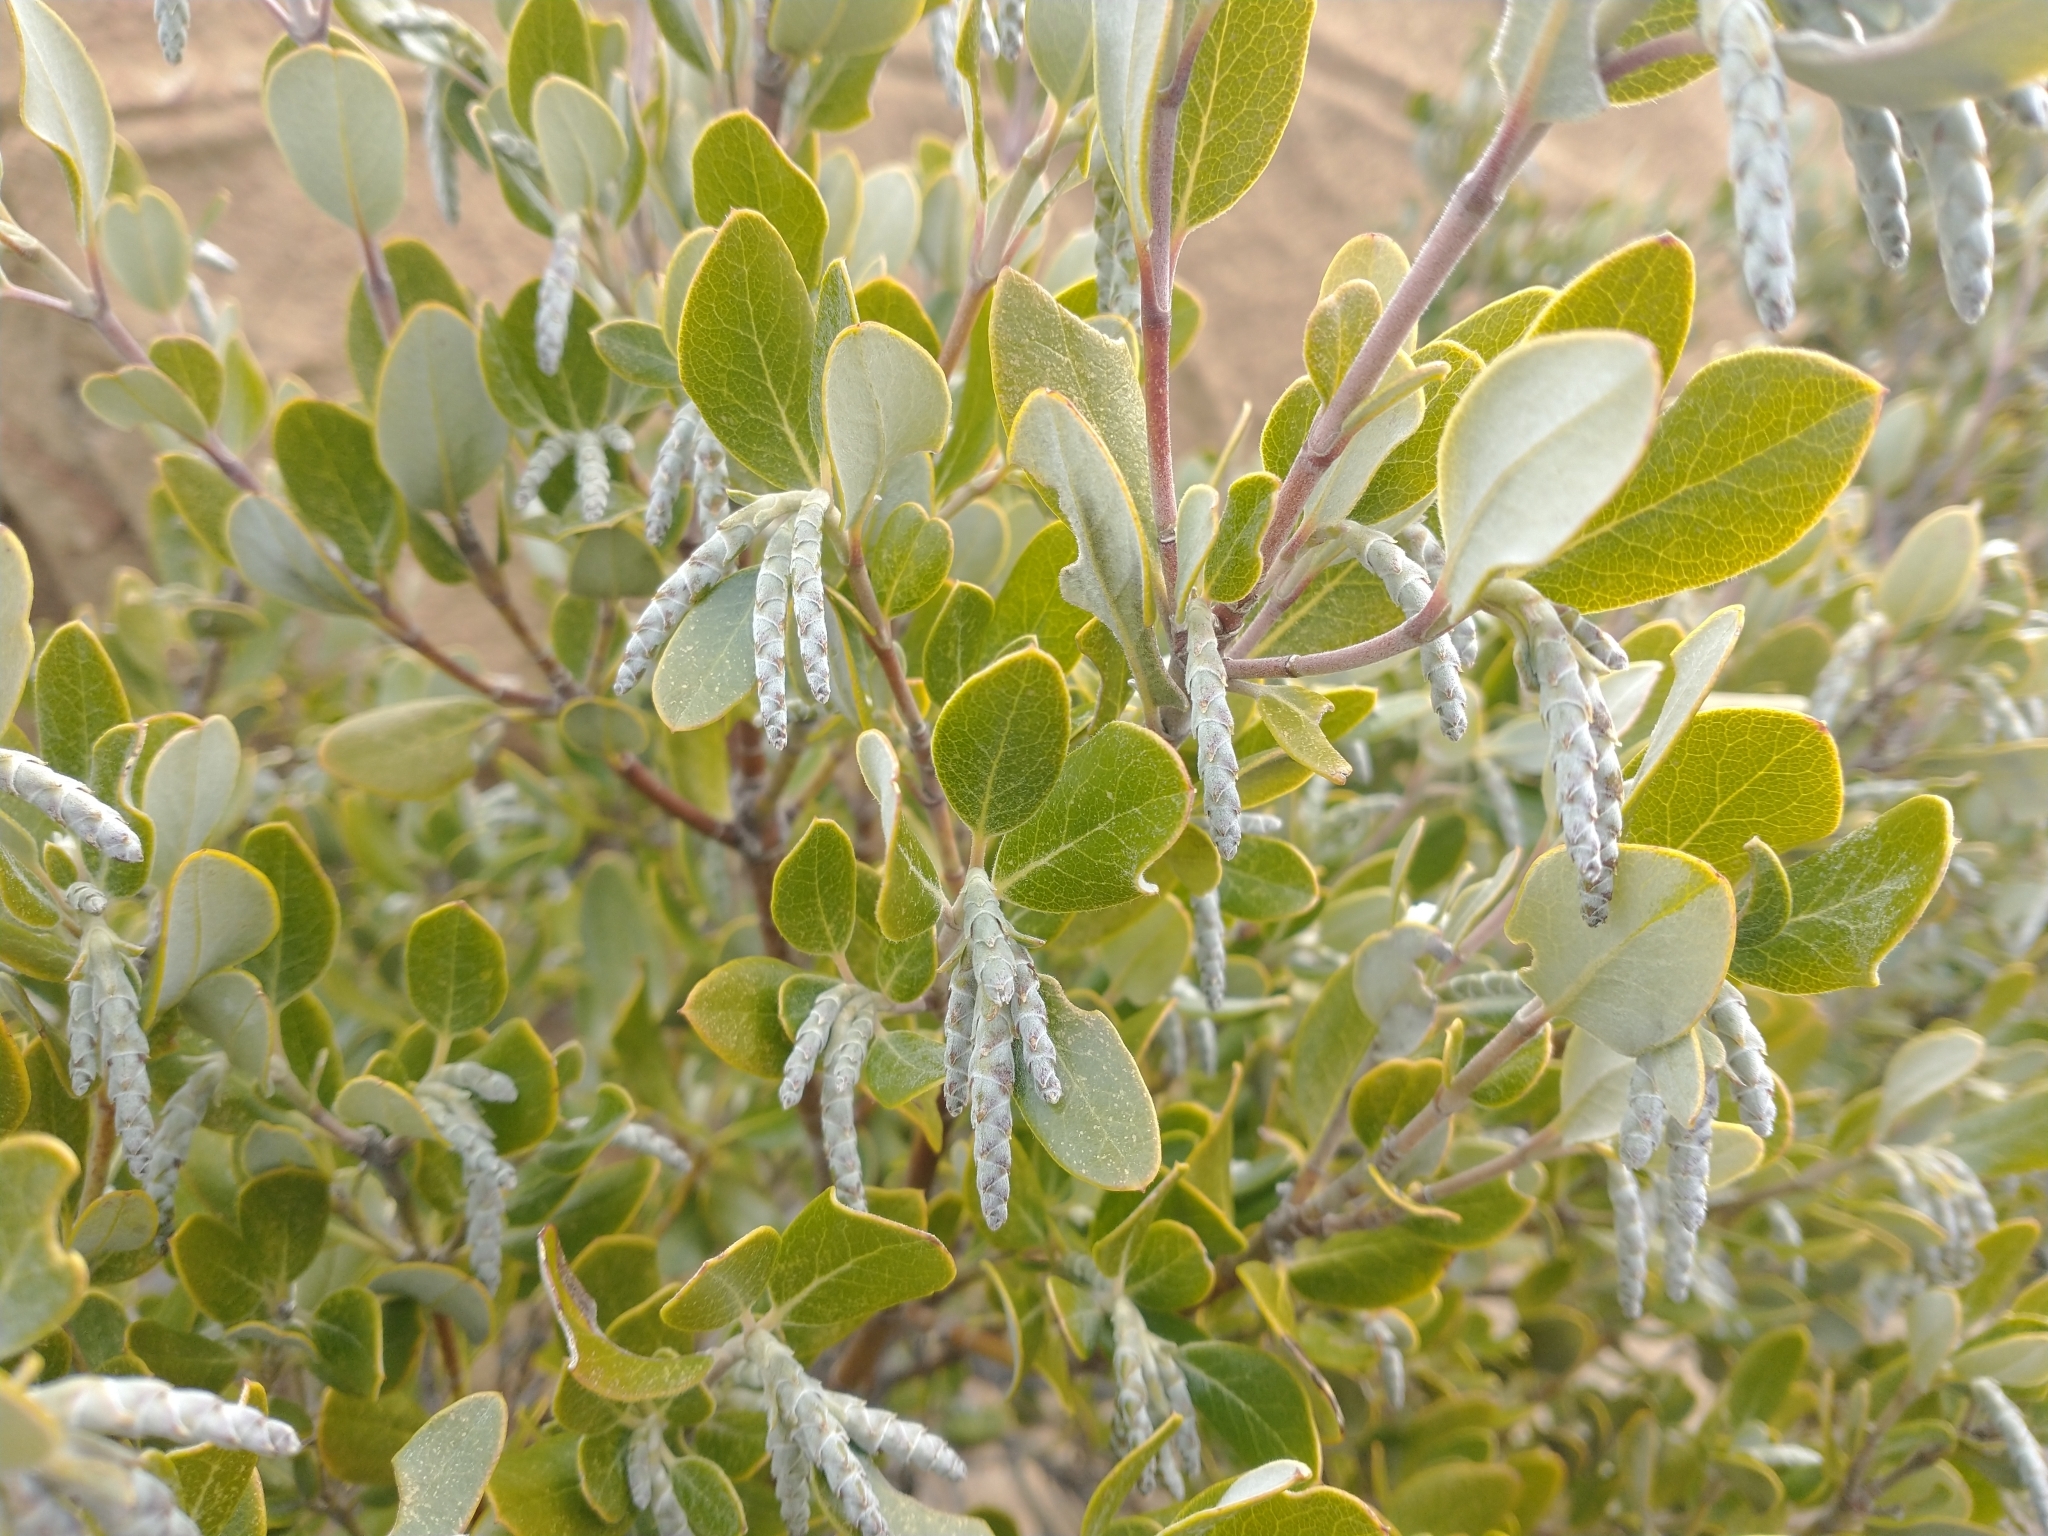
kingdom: Plantae
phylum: Tracheophyta
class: Magnoliopsida
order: Garryales
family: Garryaceae
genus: Garrya
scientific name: Garrya buxifolia
